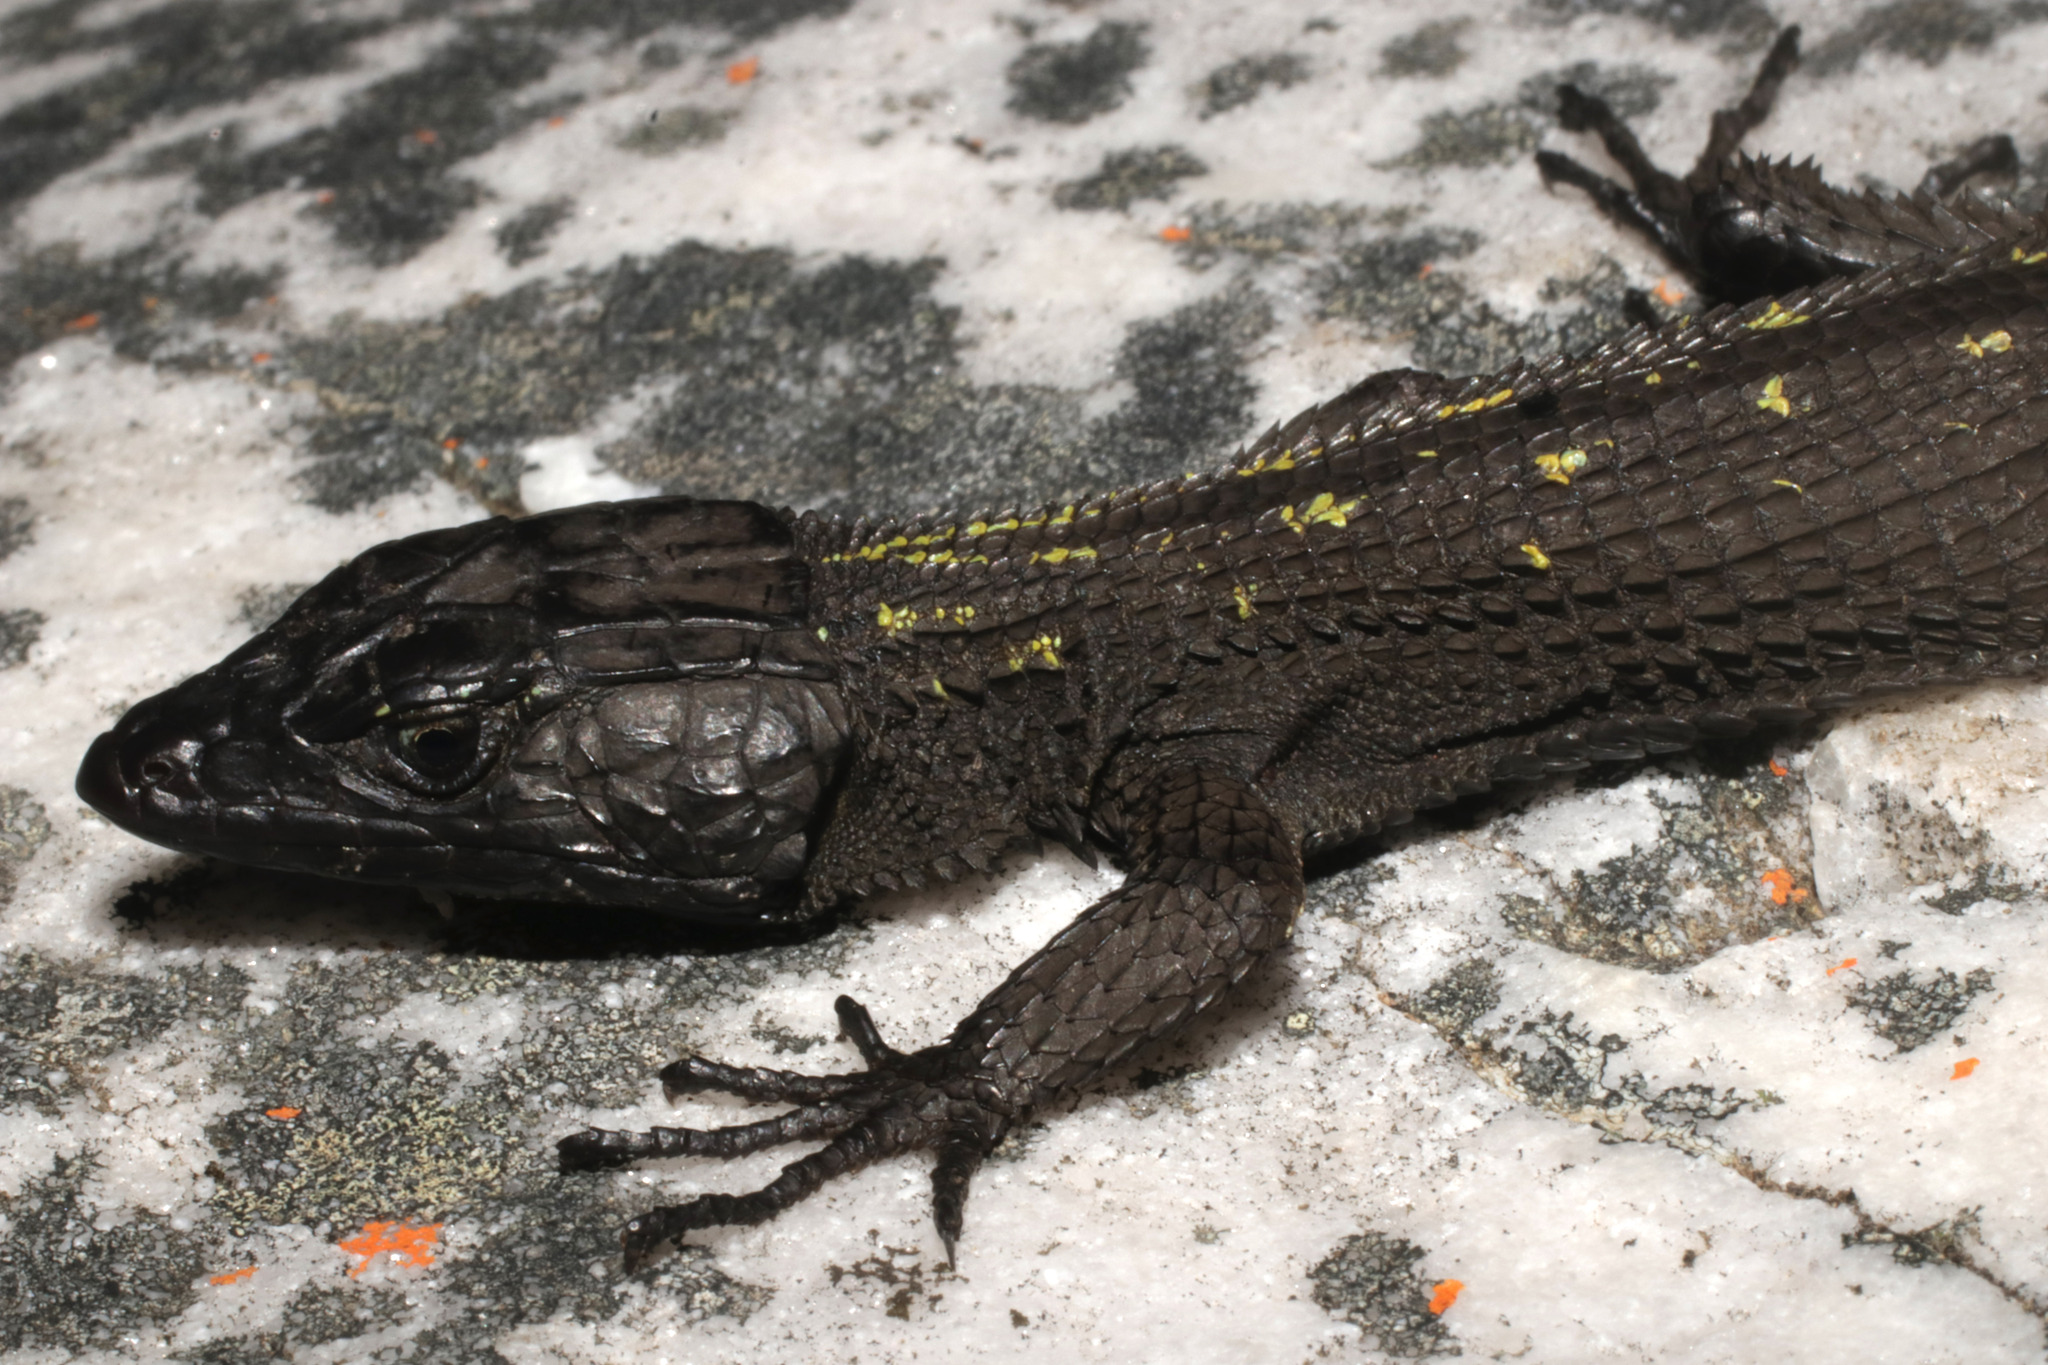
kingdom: Animalia
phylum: Chordata
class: Squamata
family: Cordylidae
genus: Hemicordylus
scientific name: Hemicordylus nebulosus
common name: Dwarf crag lizard
